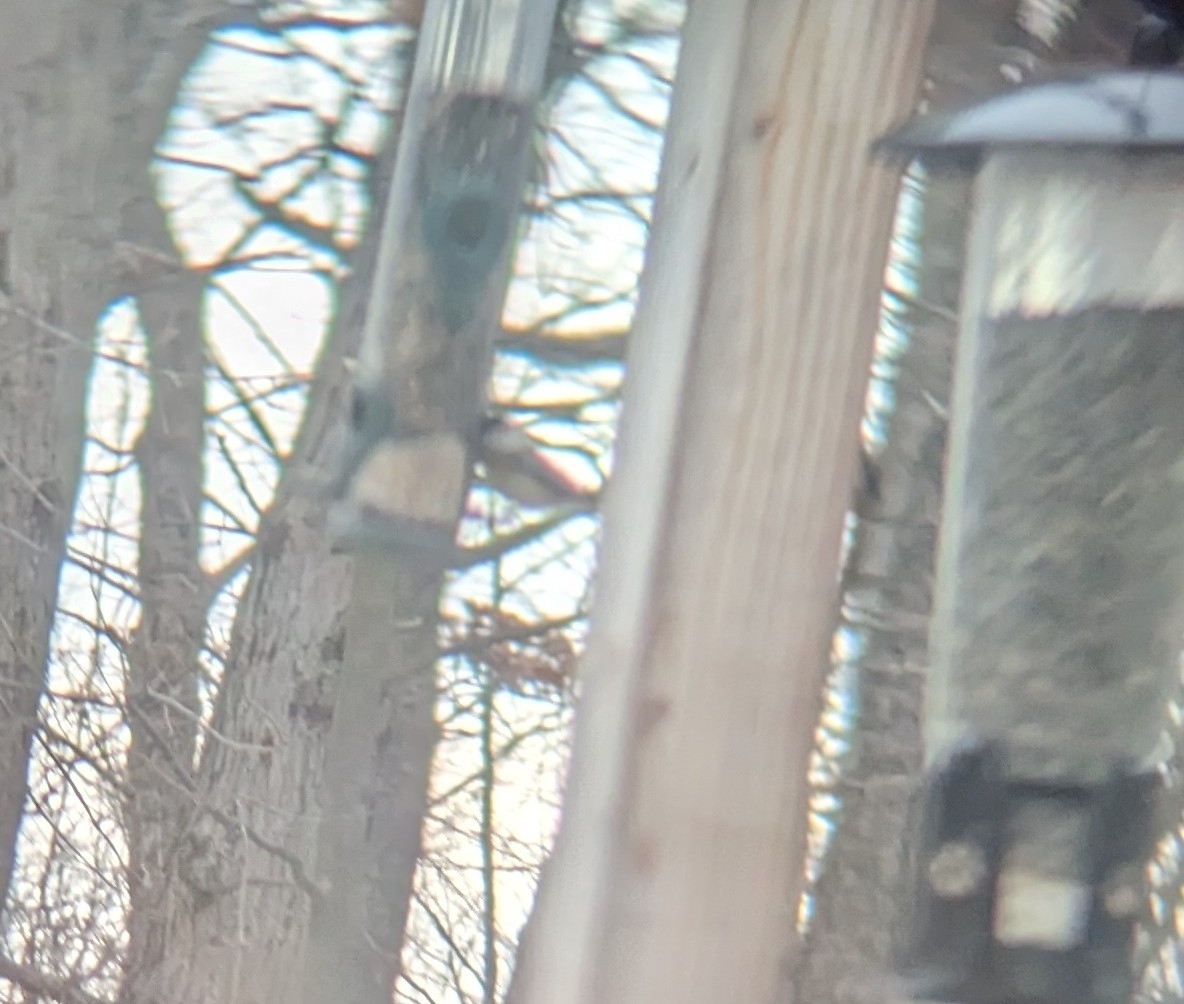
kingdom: Animalia
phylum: Chordata
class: Aves
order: Passeriformes
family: Paridae
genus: Poecile
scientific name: Poecile atricapillus
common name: Black-capped chickadee
